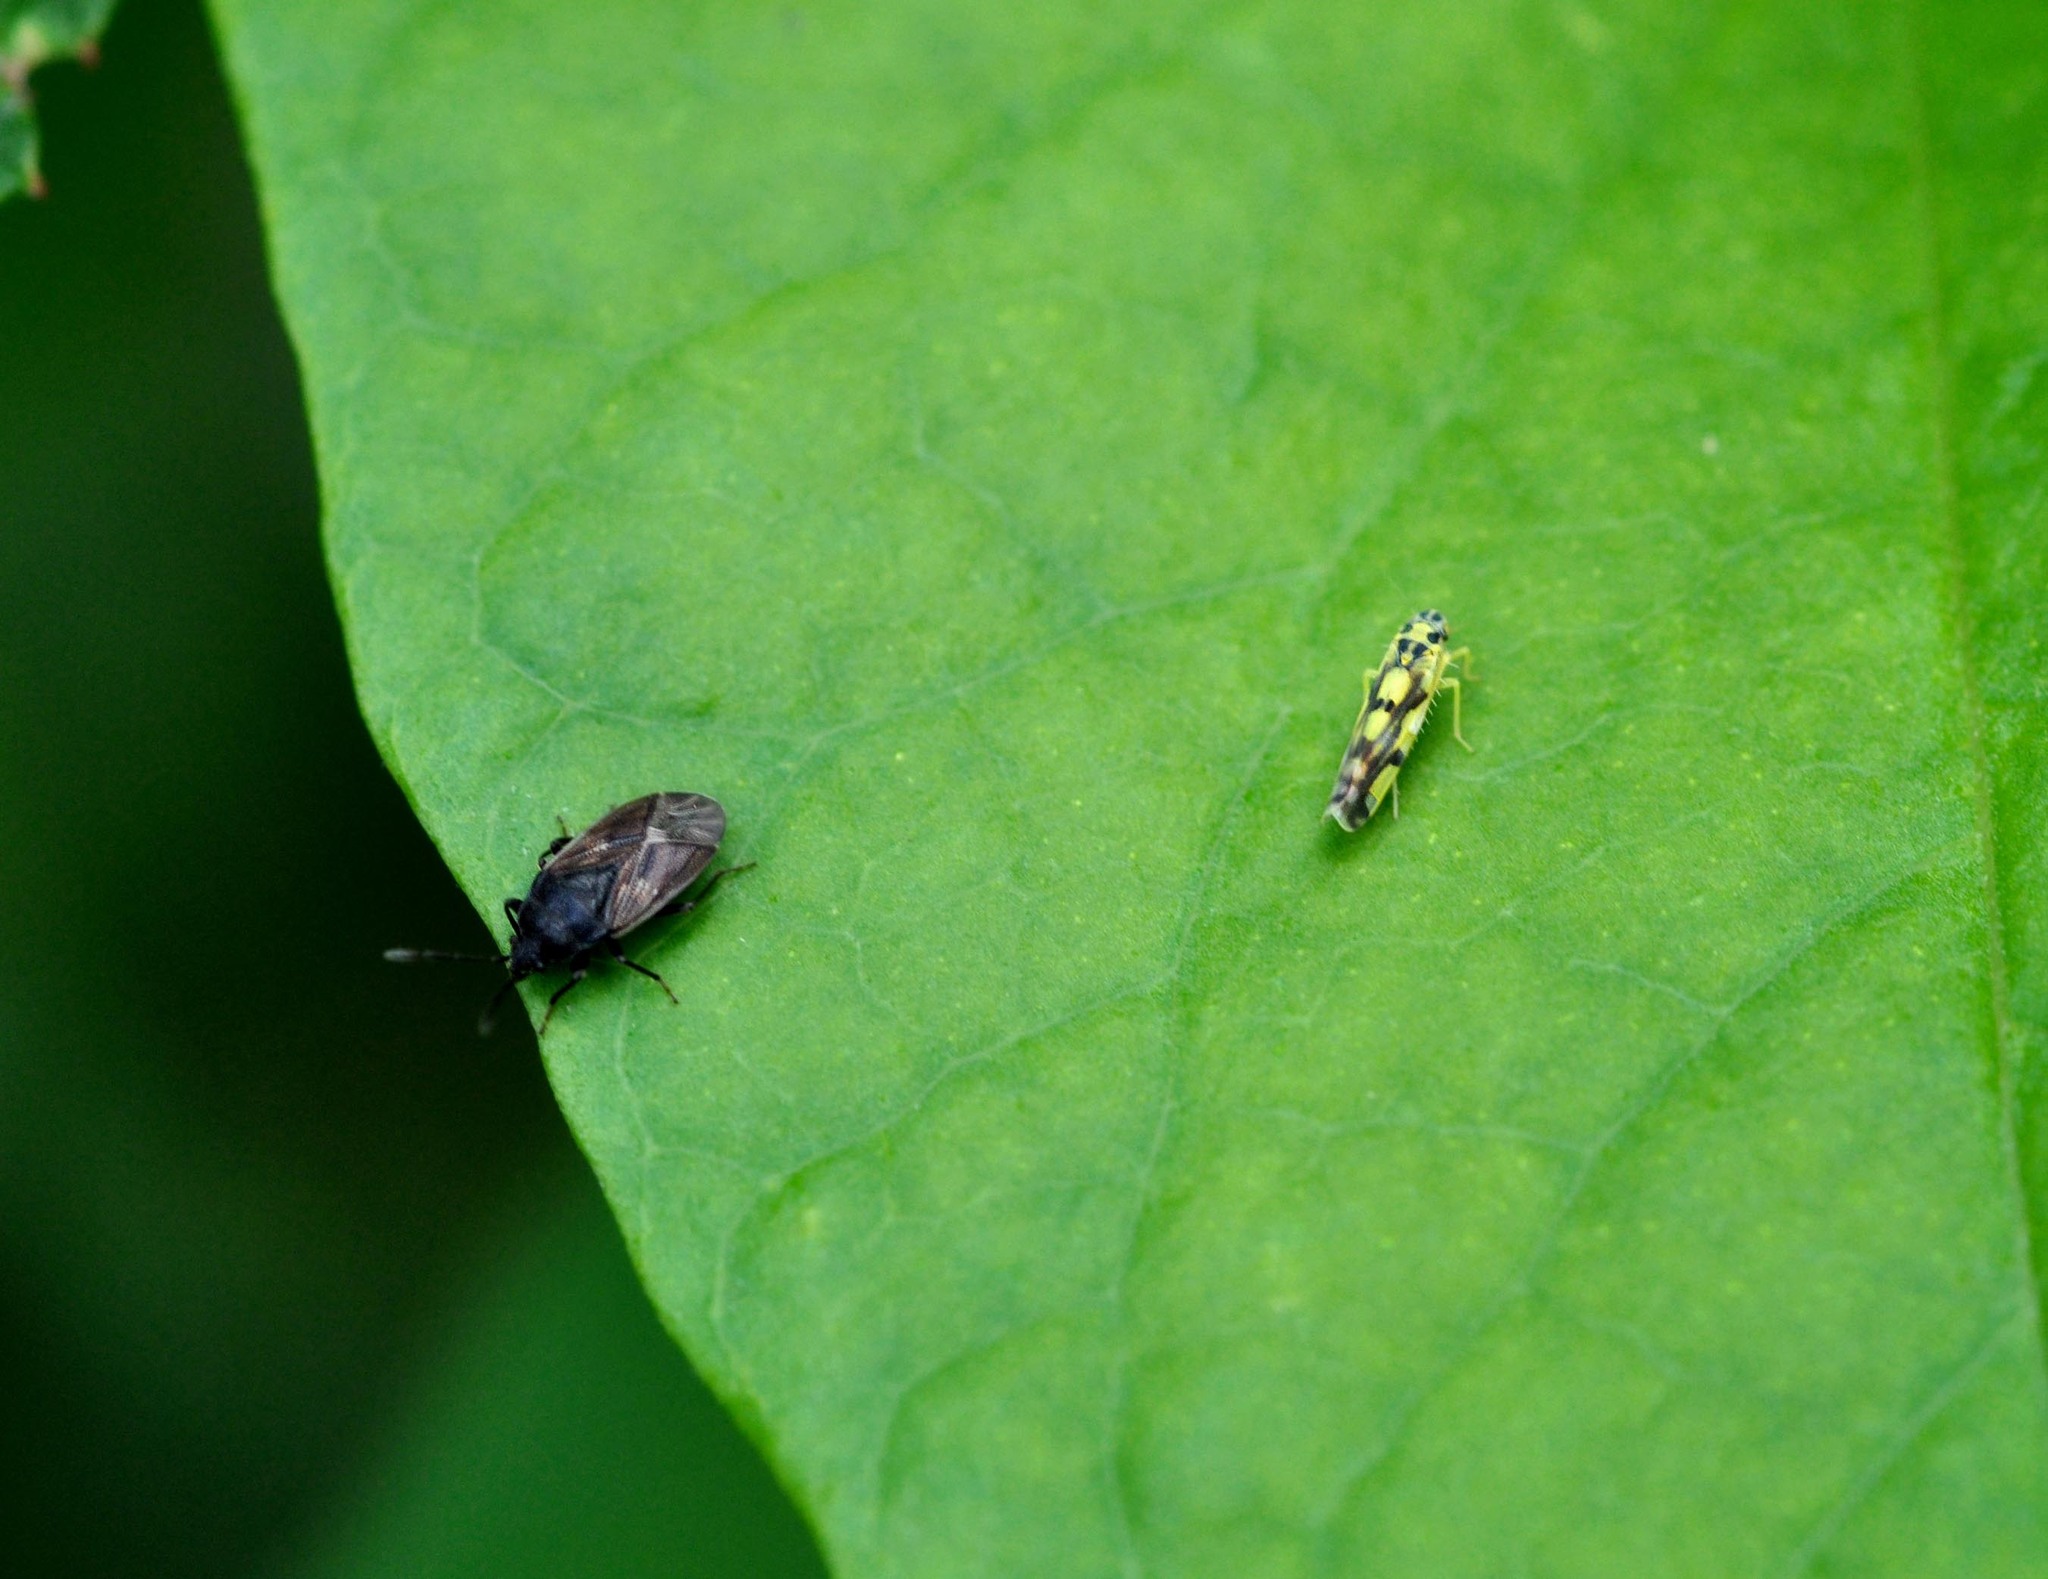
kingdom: Animalia
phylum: Arthropoda
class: Insecta
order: Hemiptera
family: Cicadellidae
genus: Eupteryx
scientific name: Eupteryx aurata
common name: Leafhopper
